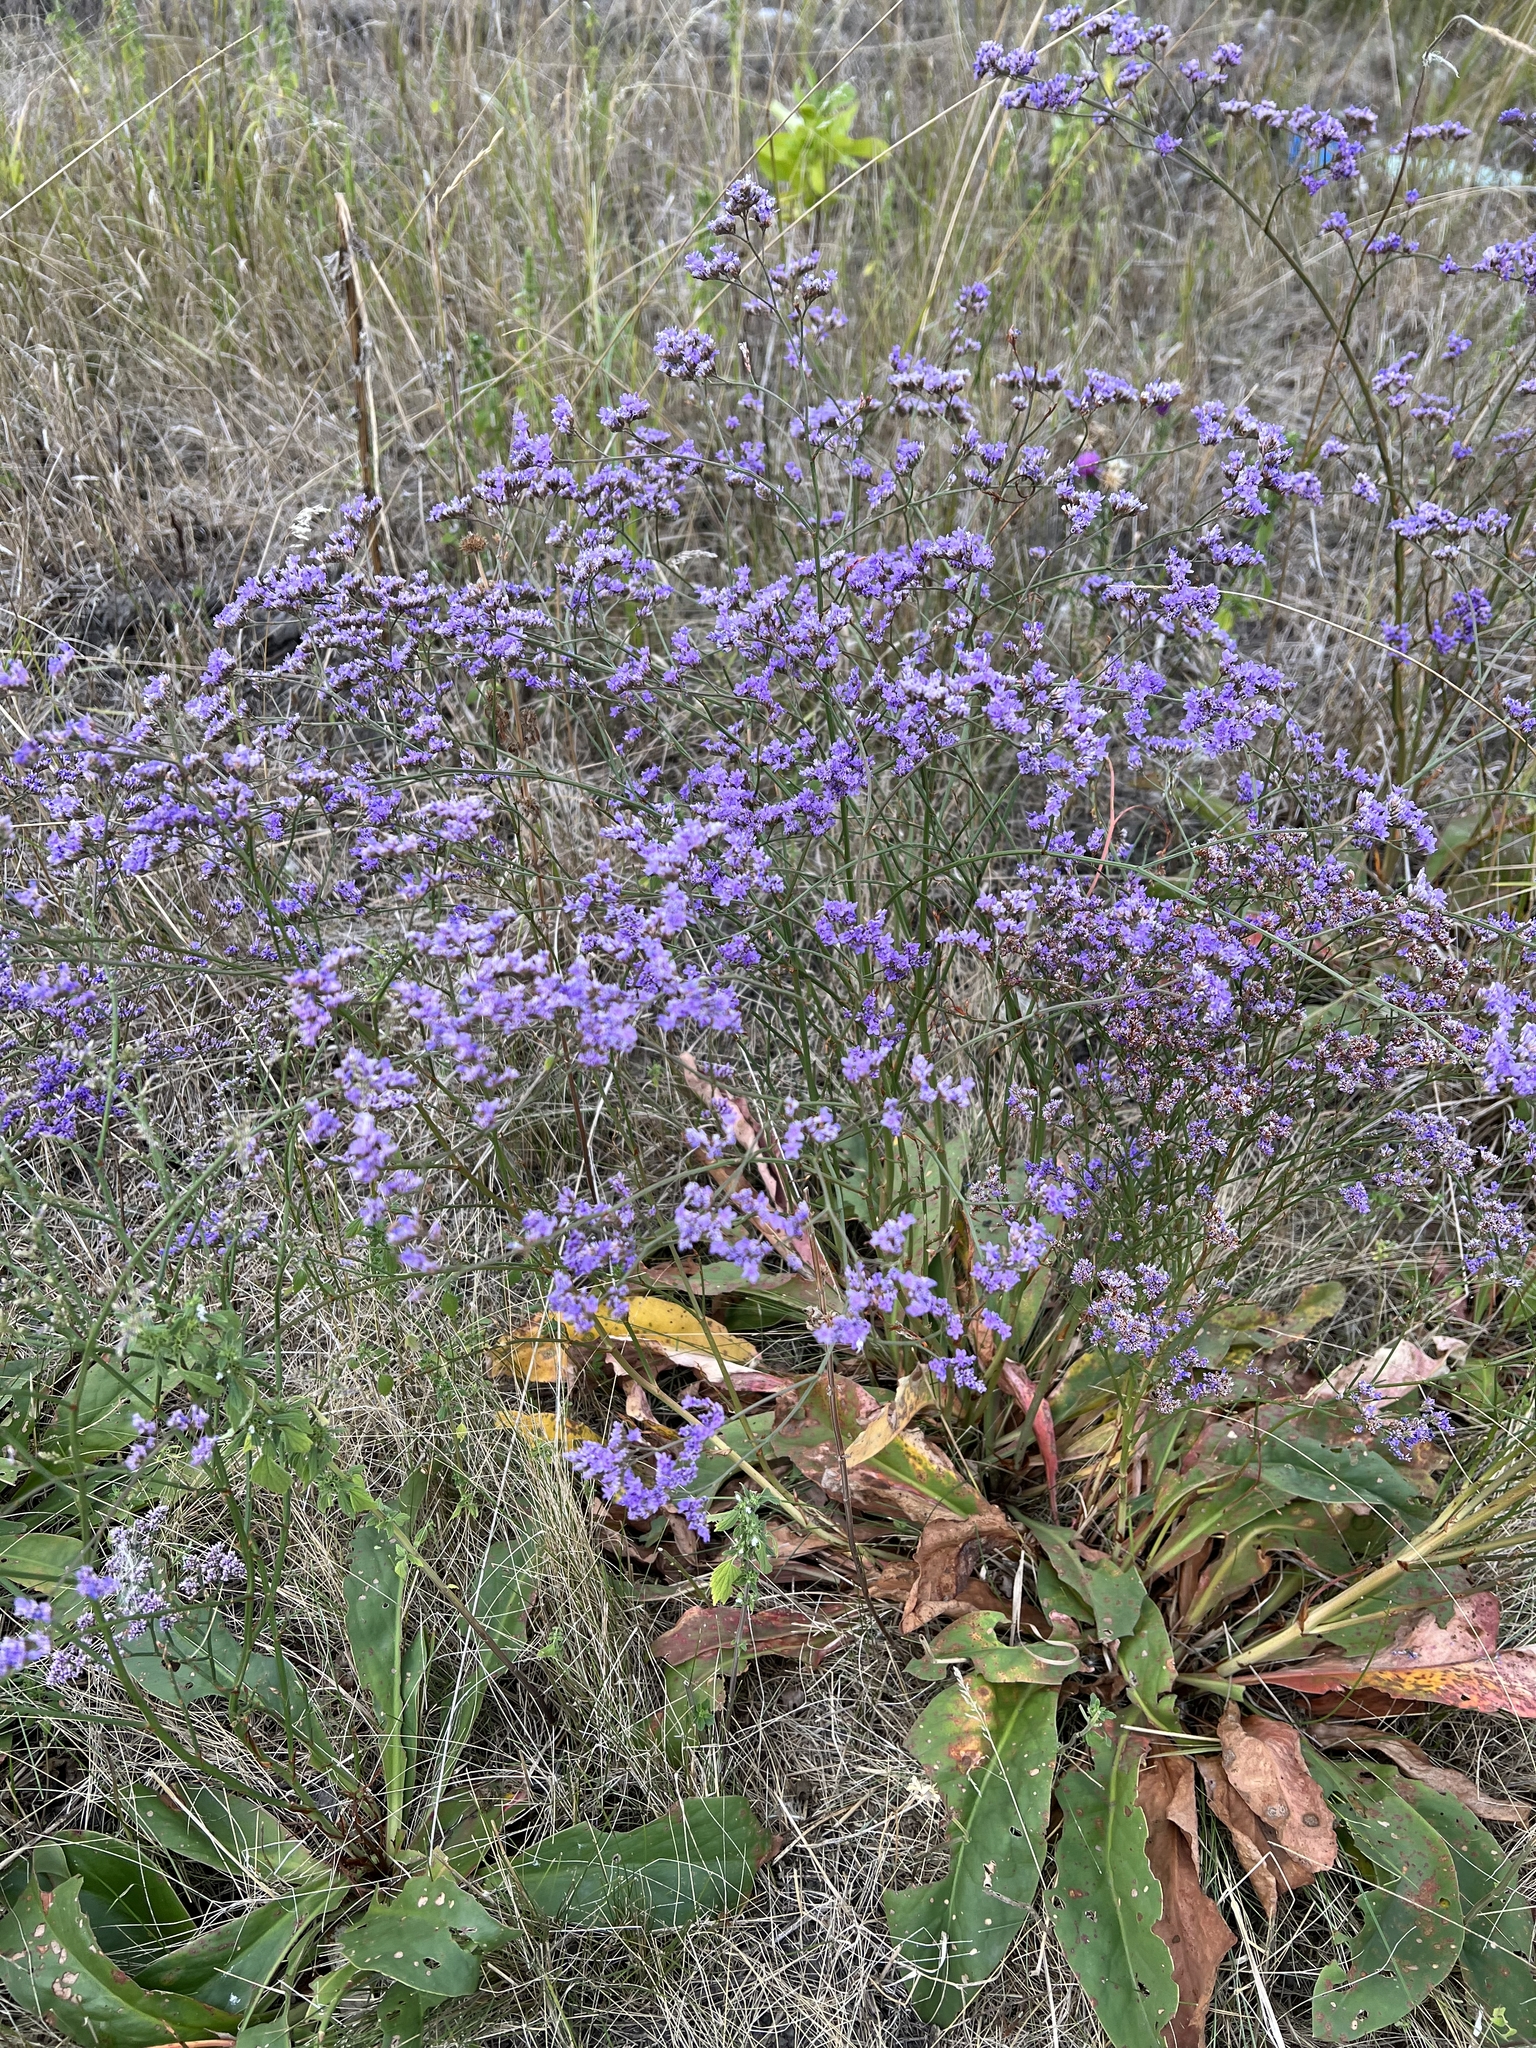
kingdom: Plantae
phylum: Tracheophyta
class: Magnoliopsida
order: Caryophyllales
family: Plumbaginaceae
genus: Limonium
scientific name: Limonium gmelini
